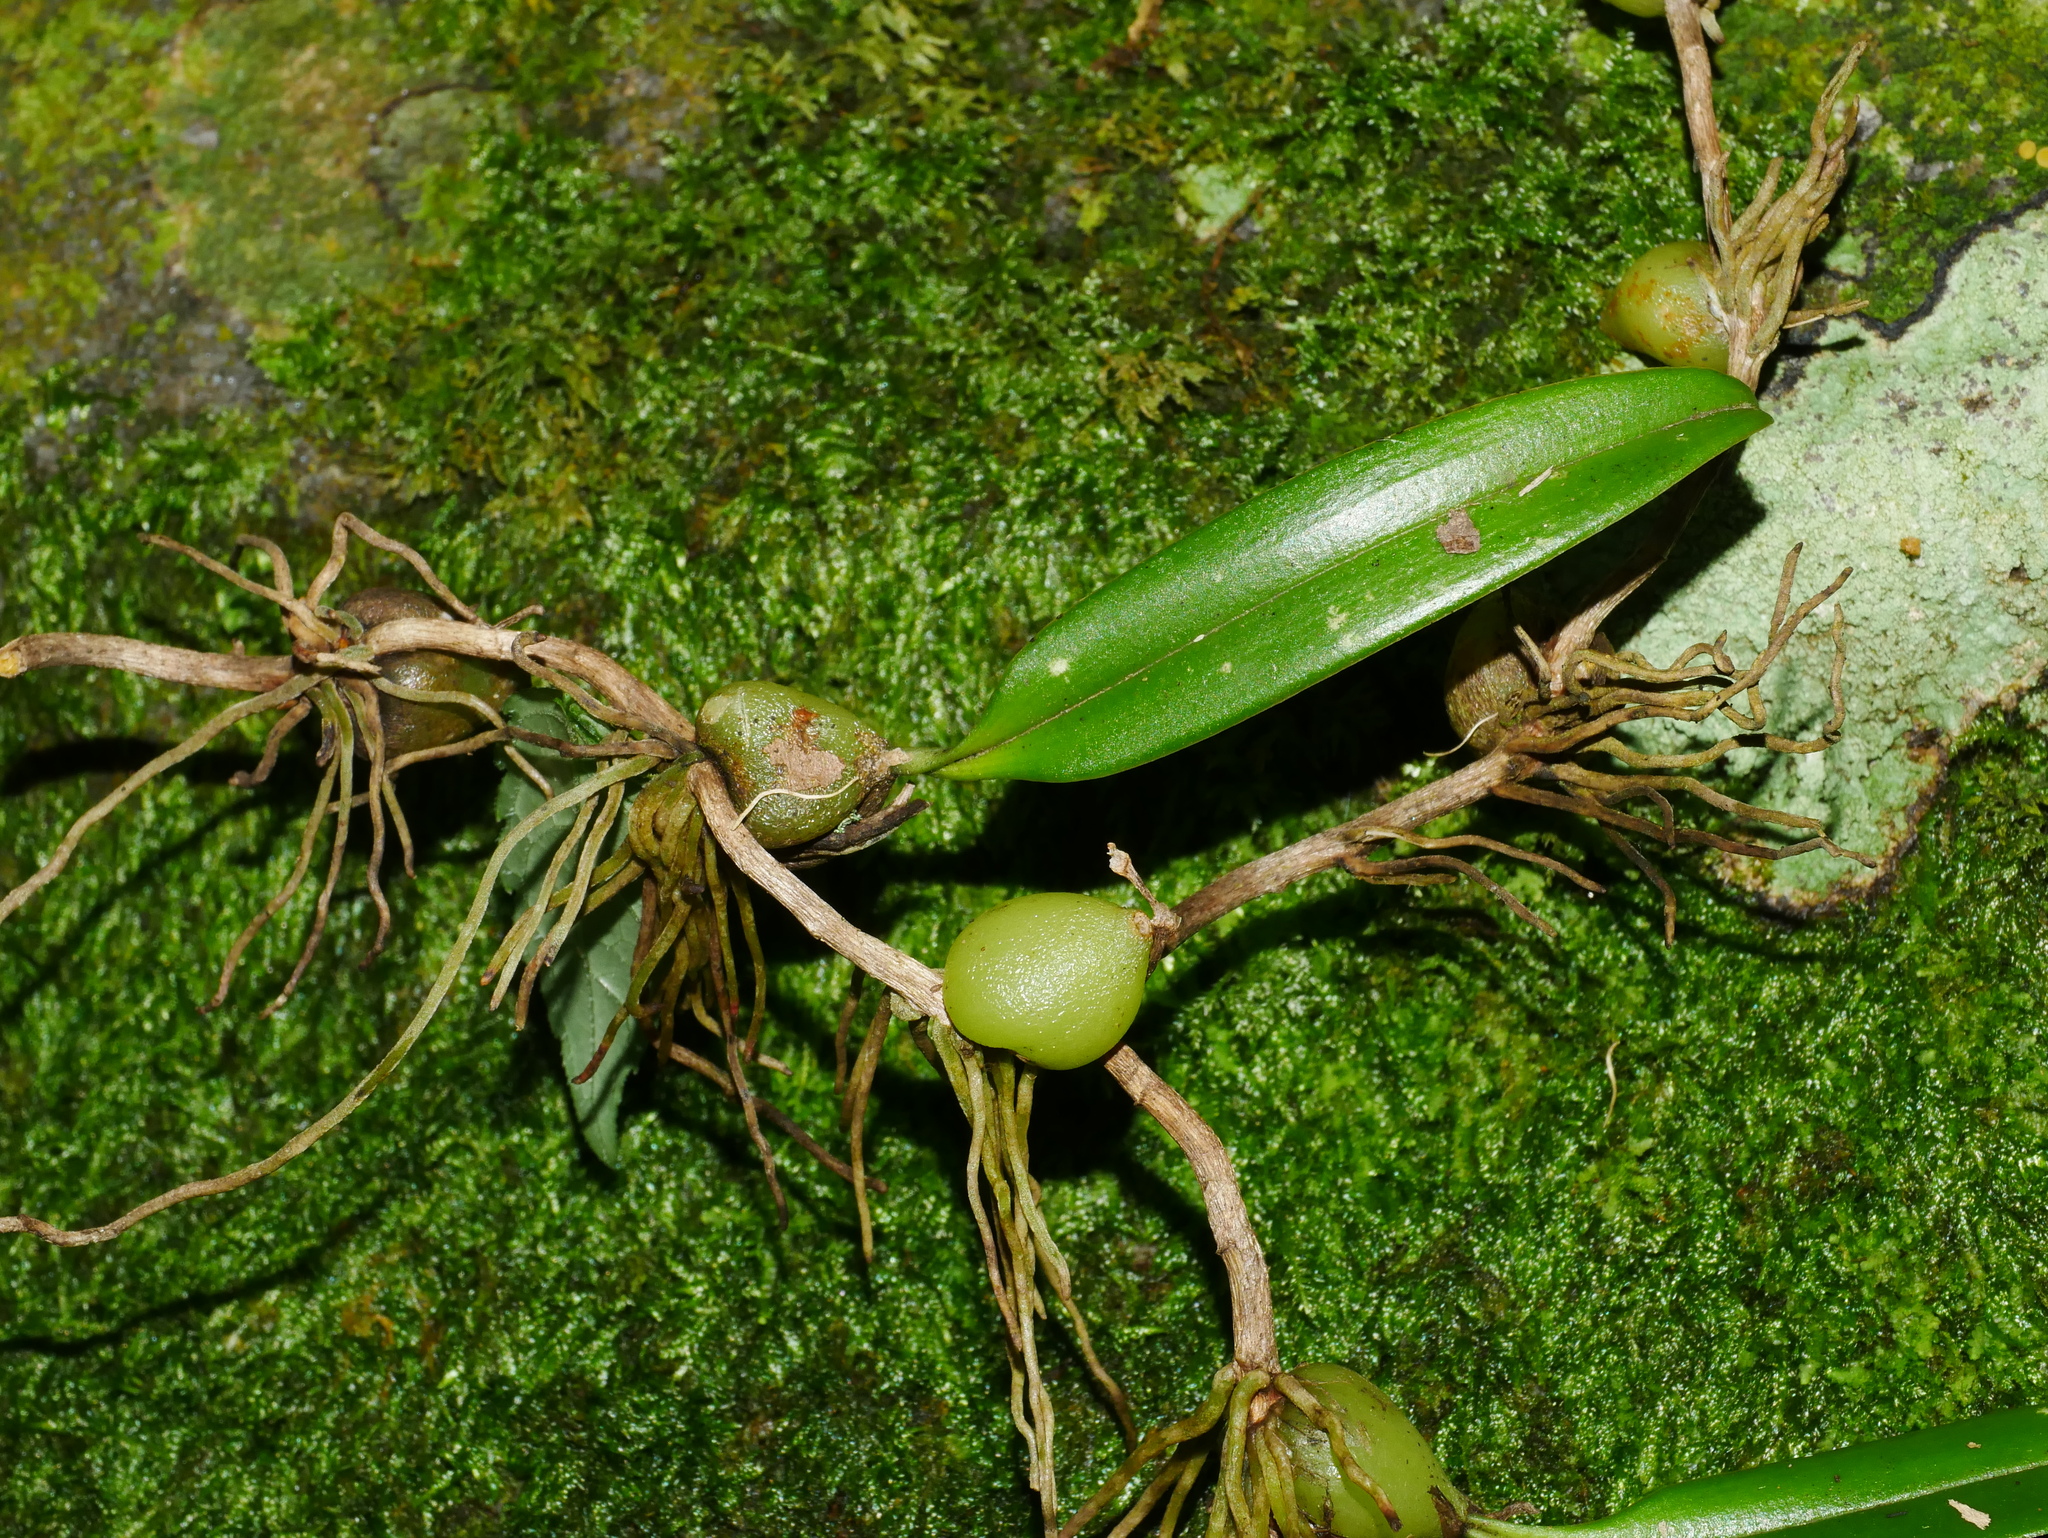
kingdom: Plantae
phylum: Tracheophyta
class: Liliopsida
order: Asparagales
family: Orchidaceae
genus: Bulbophyllum
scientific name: Bulbophyllum bifurcatoflorens
